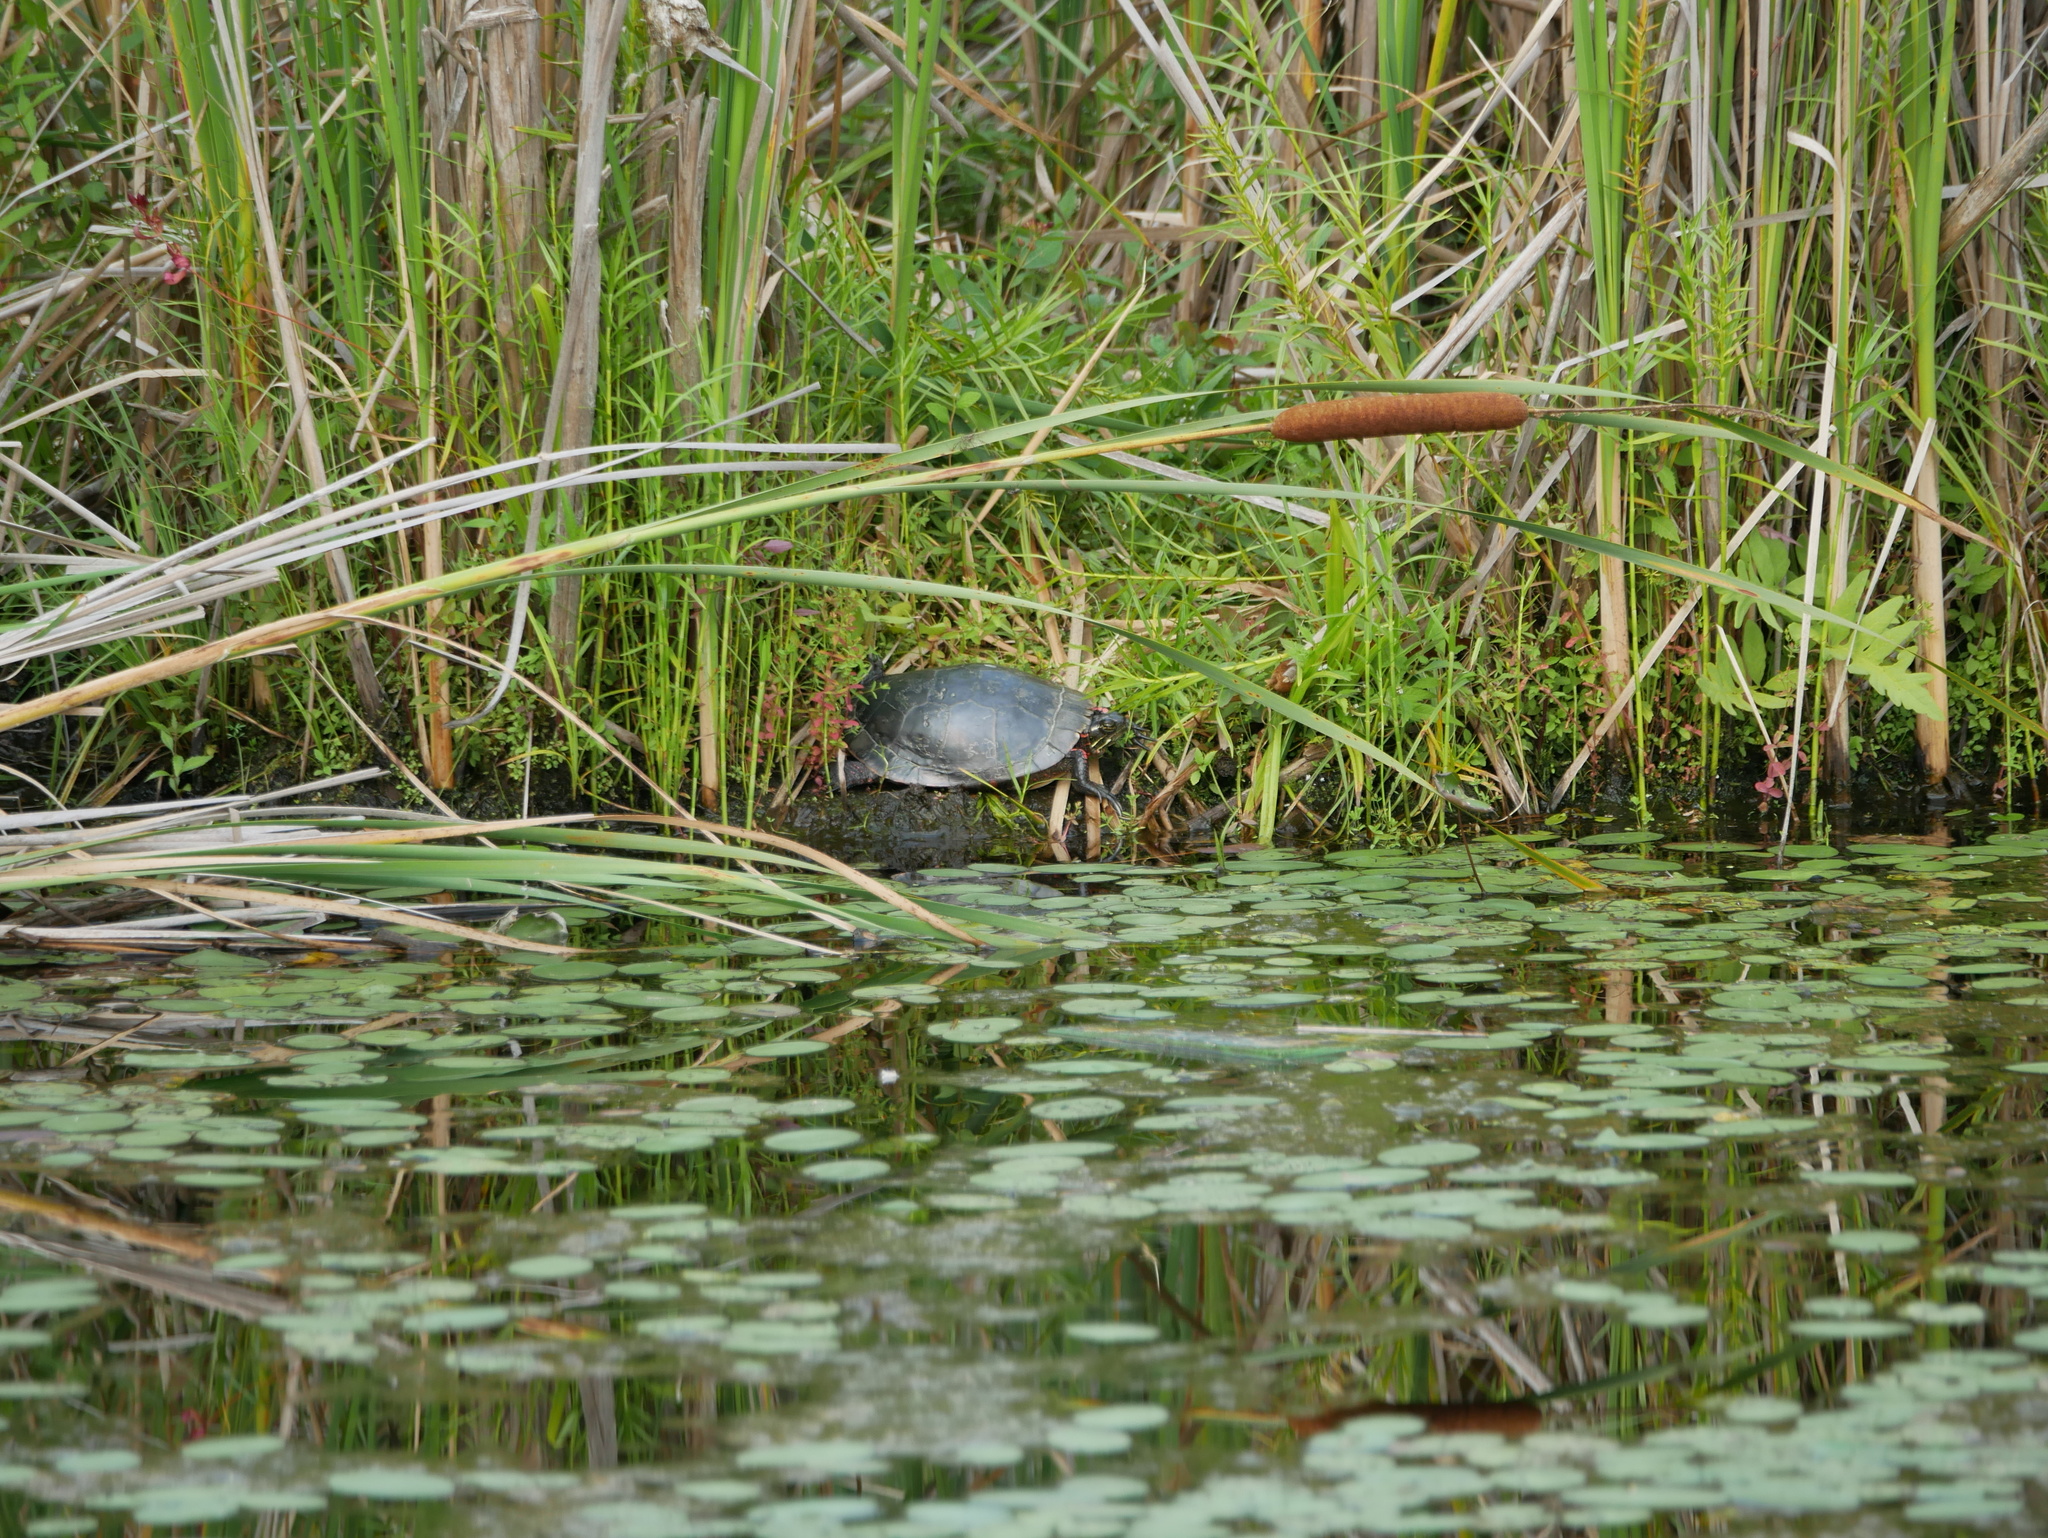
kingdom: Animalia
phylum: Chordata
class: Testudines
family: Emydidae
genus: Chrysemys
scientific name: Chrysemys picta
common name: Painted turtle
